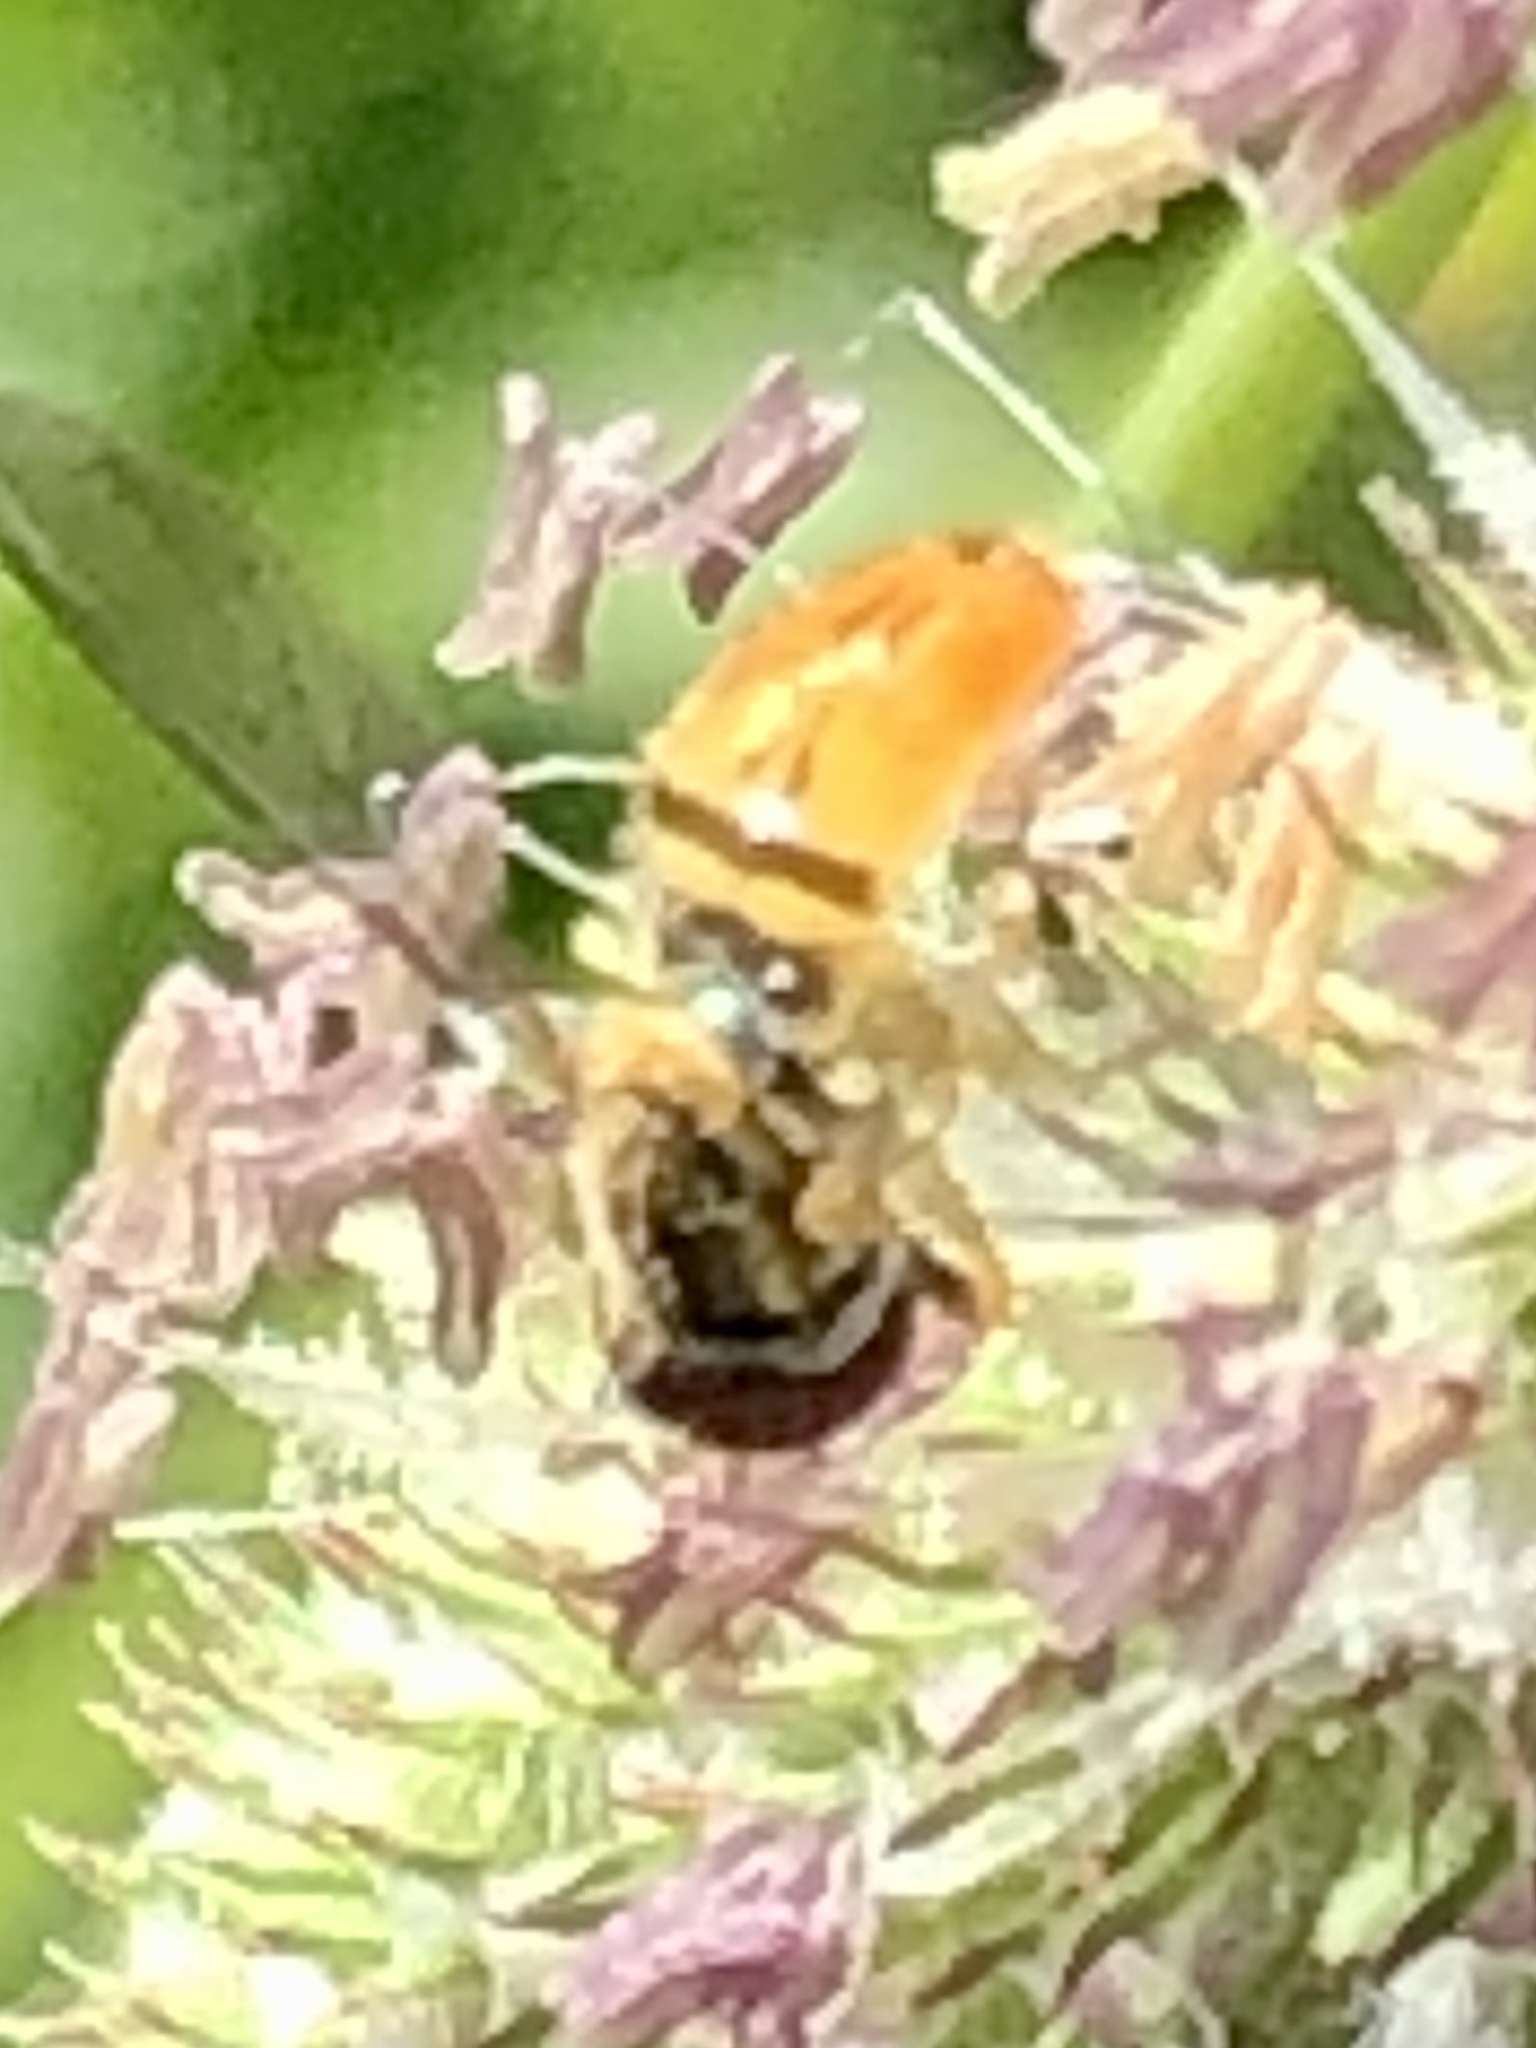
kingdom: Animalia
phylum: Arthropoda
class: Insecta
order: Diptera
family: Syrphidae
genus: Toxomerus
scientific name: Toxomerus marginatus
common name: Syrphid fly
